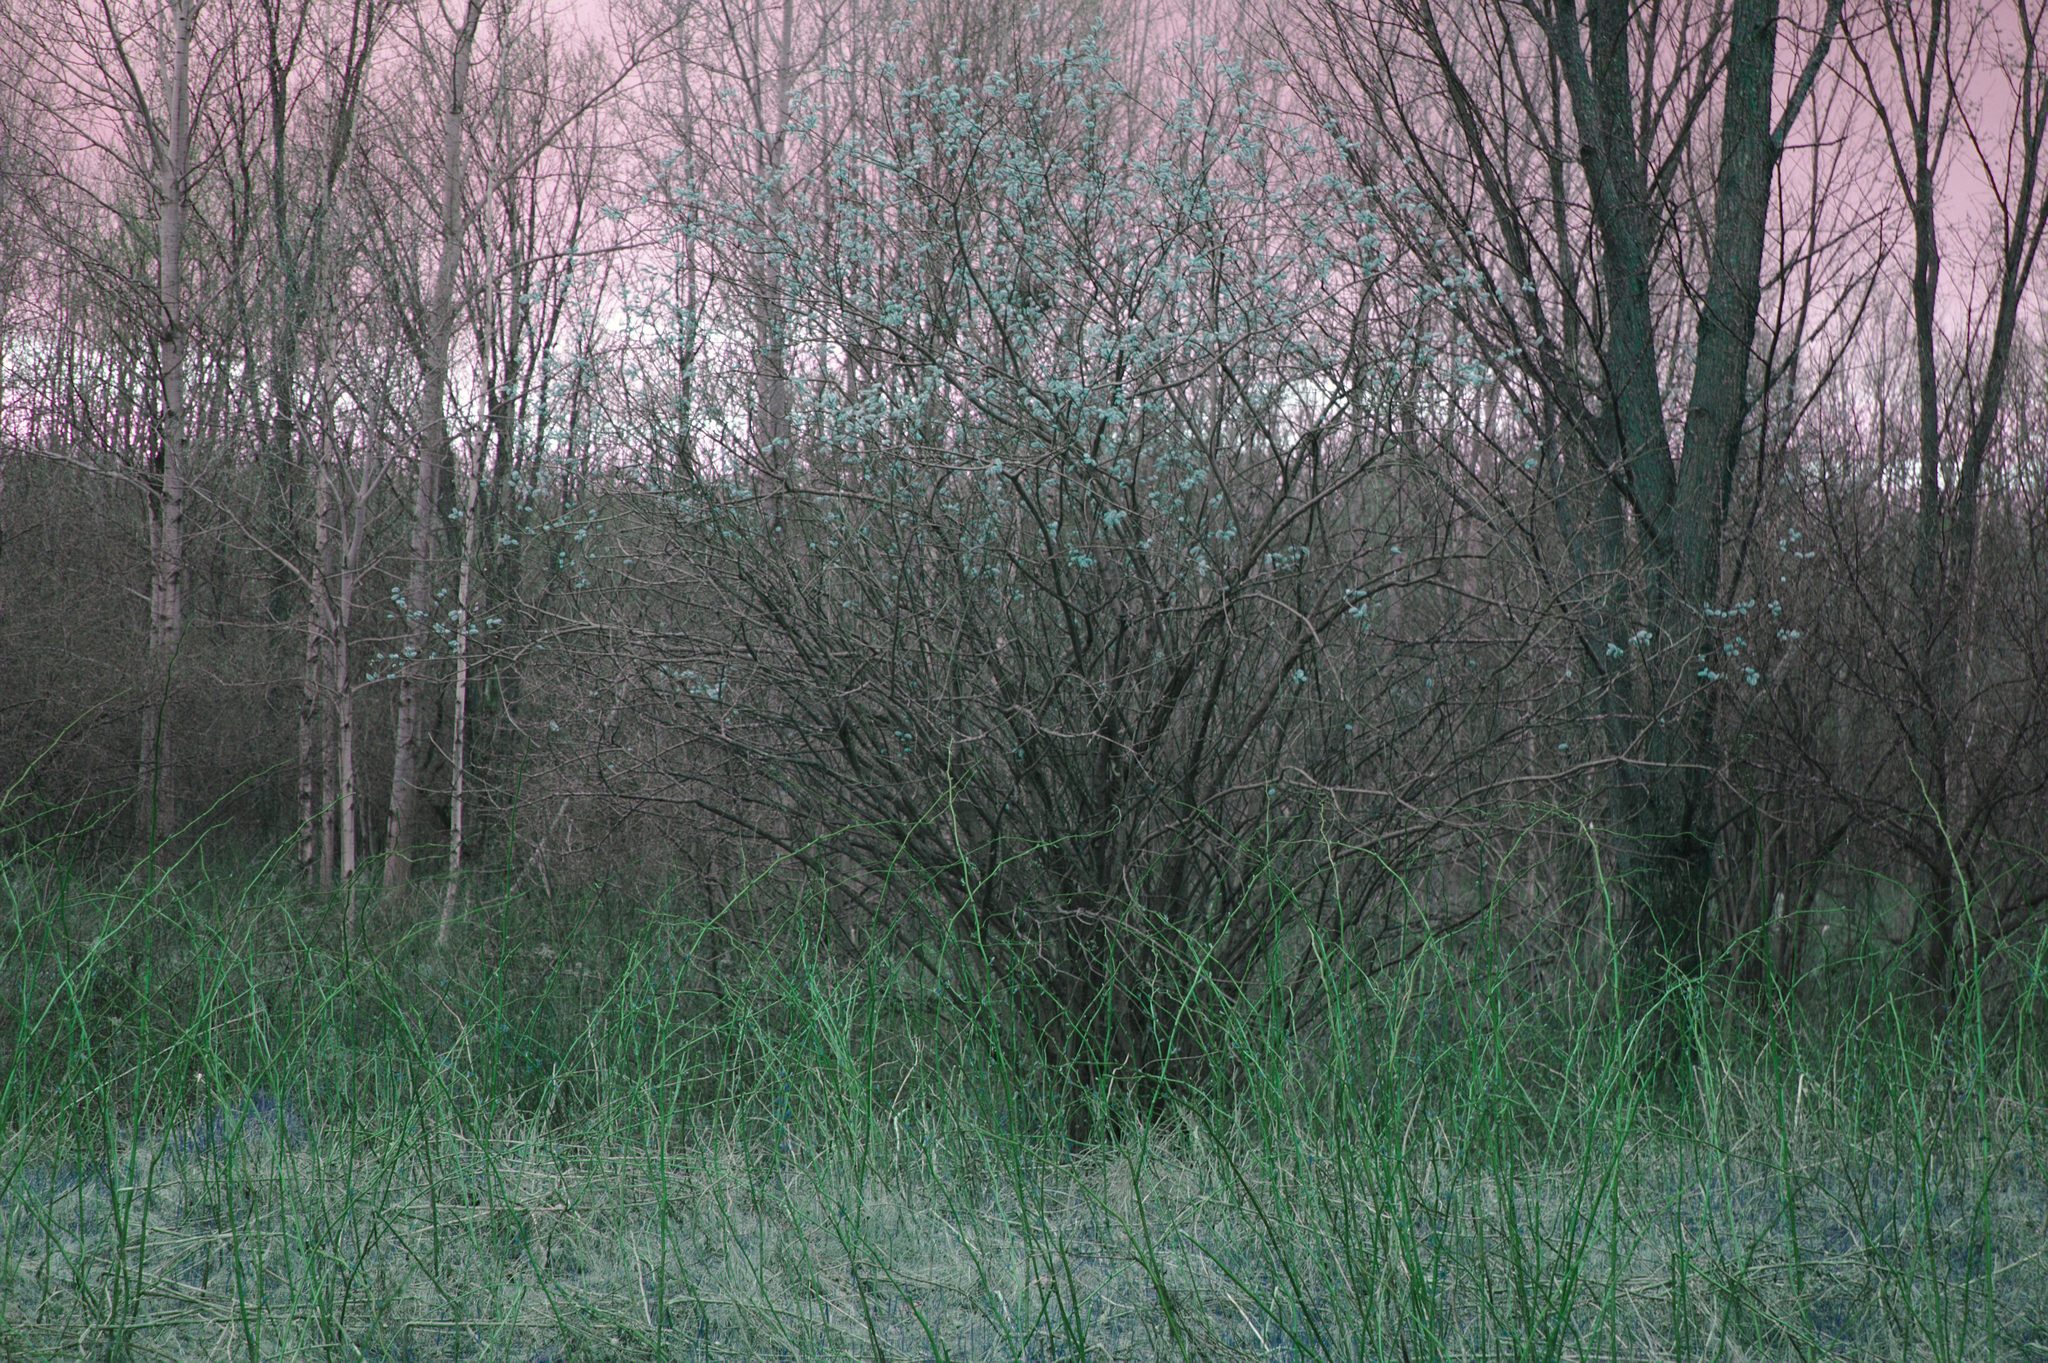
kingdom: Plantae
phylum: Tracheophyta
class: Magnoliopsida
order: Malpighiales
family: Salicaceae
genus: Salix
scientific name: Salix discolor
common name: Glaucous willow
